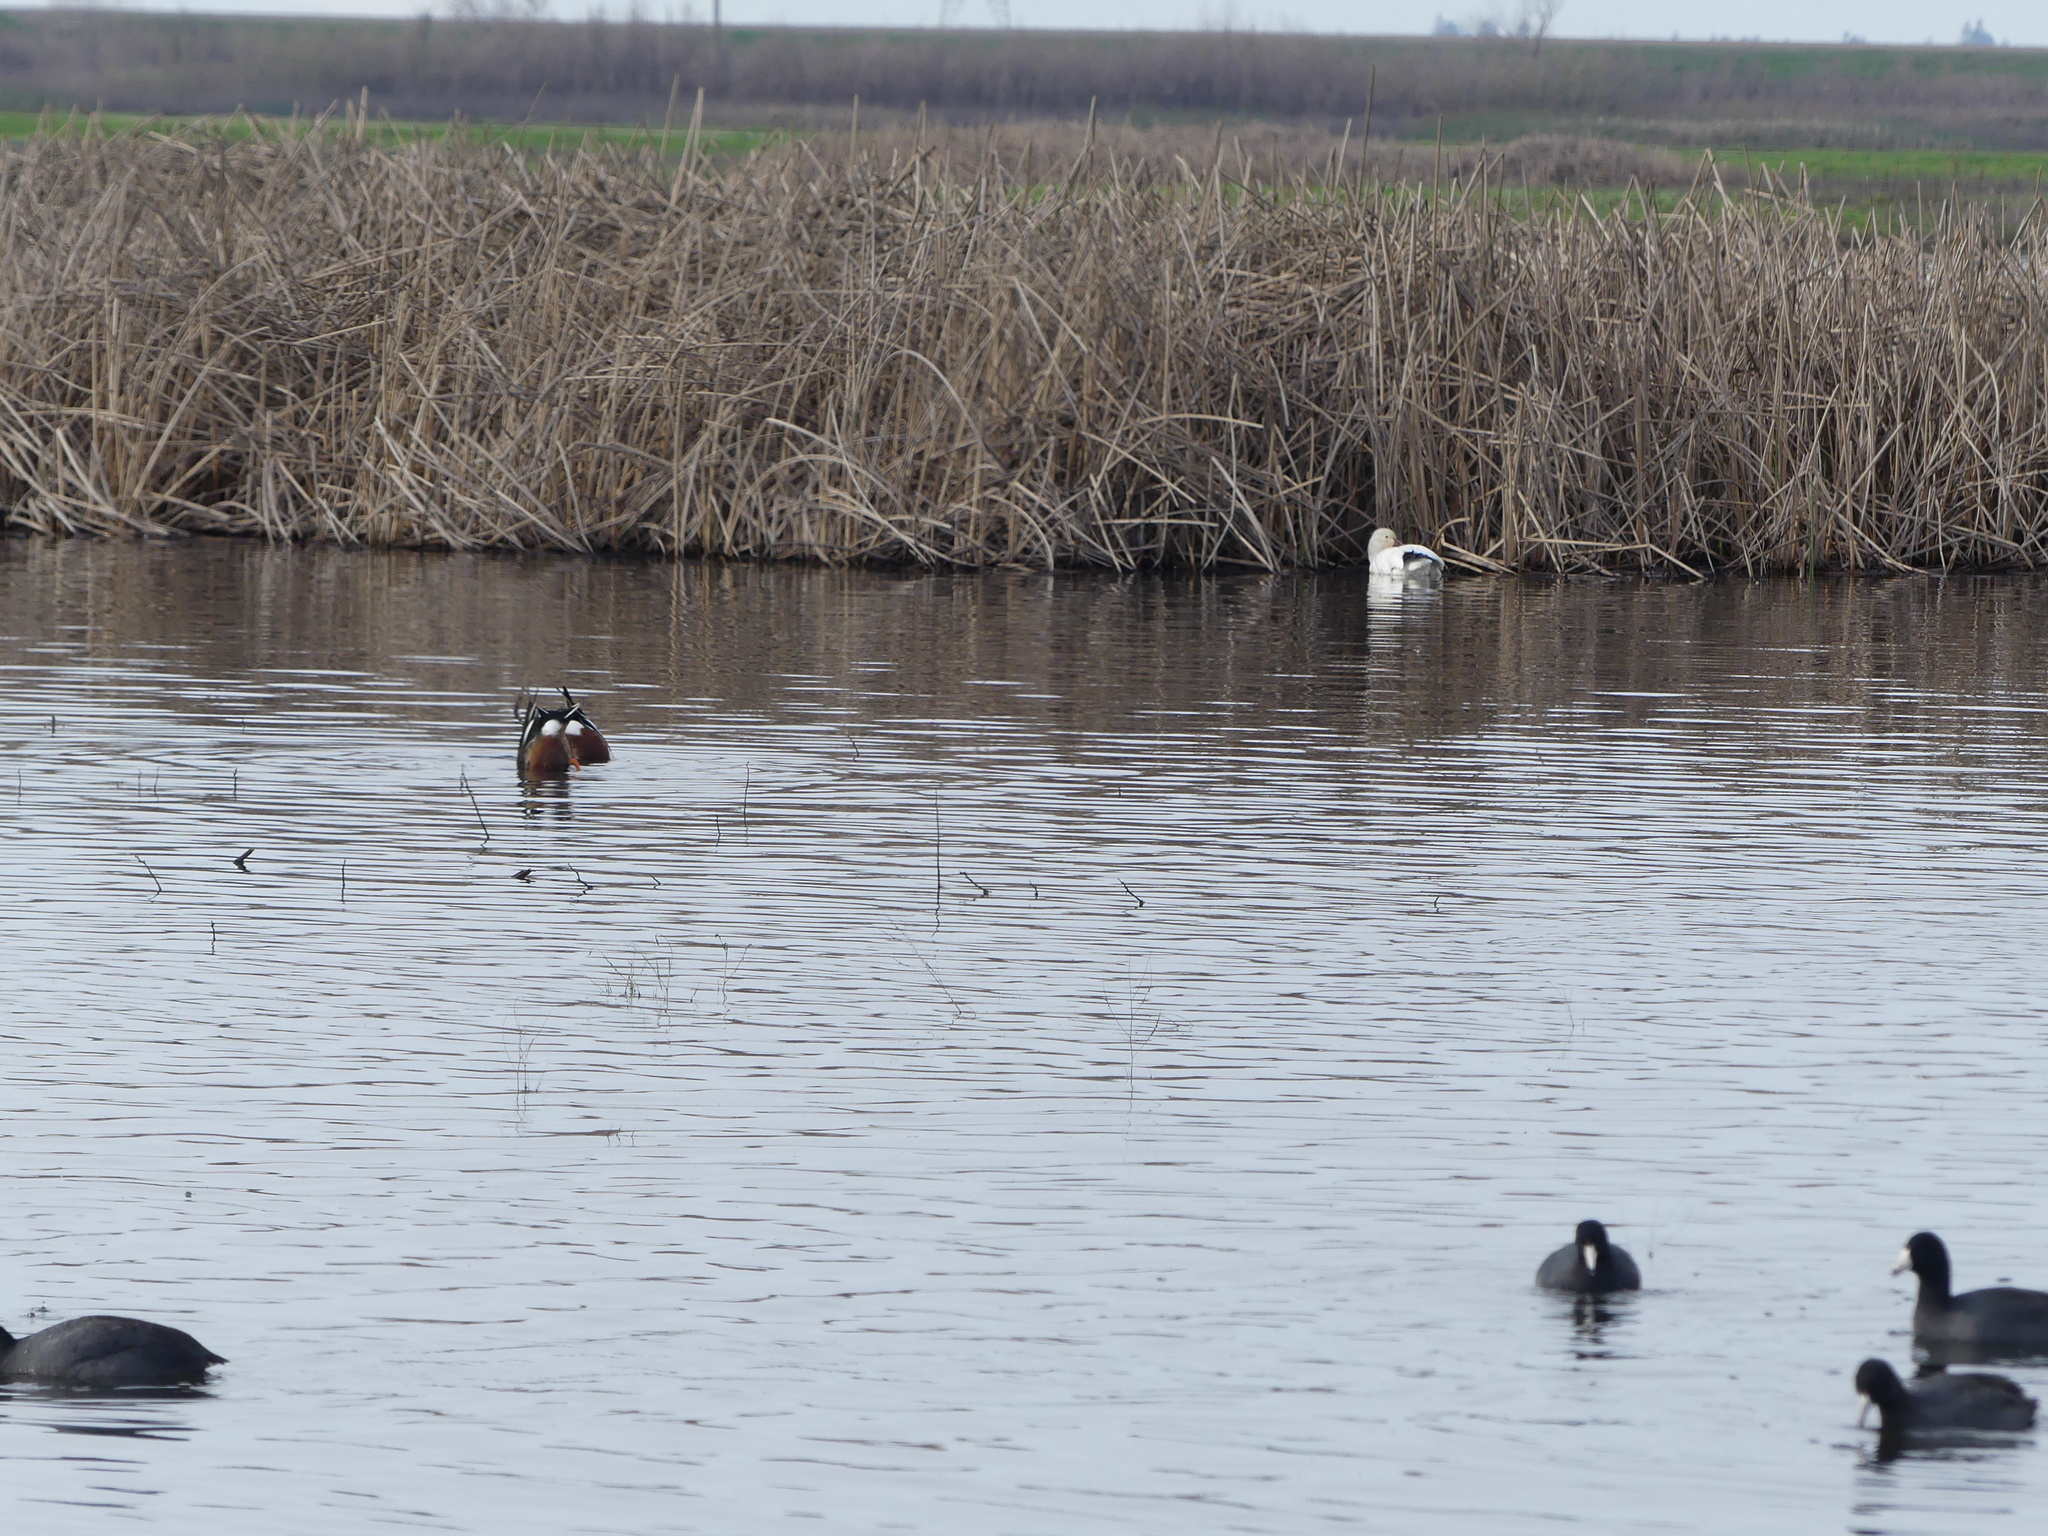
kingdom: Animalia
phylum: Chordata
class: Aves
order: Anseriformes
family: Anatidae
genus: Anser
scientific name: Anser caerulescens
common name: Snow goose
